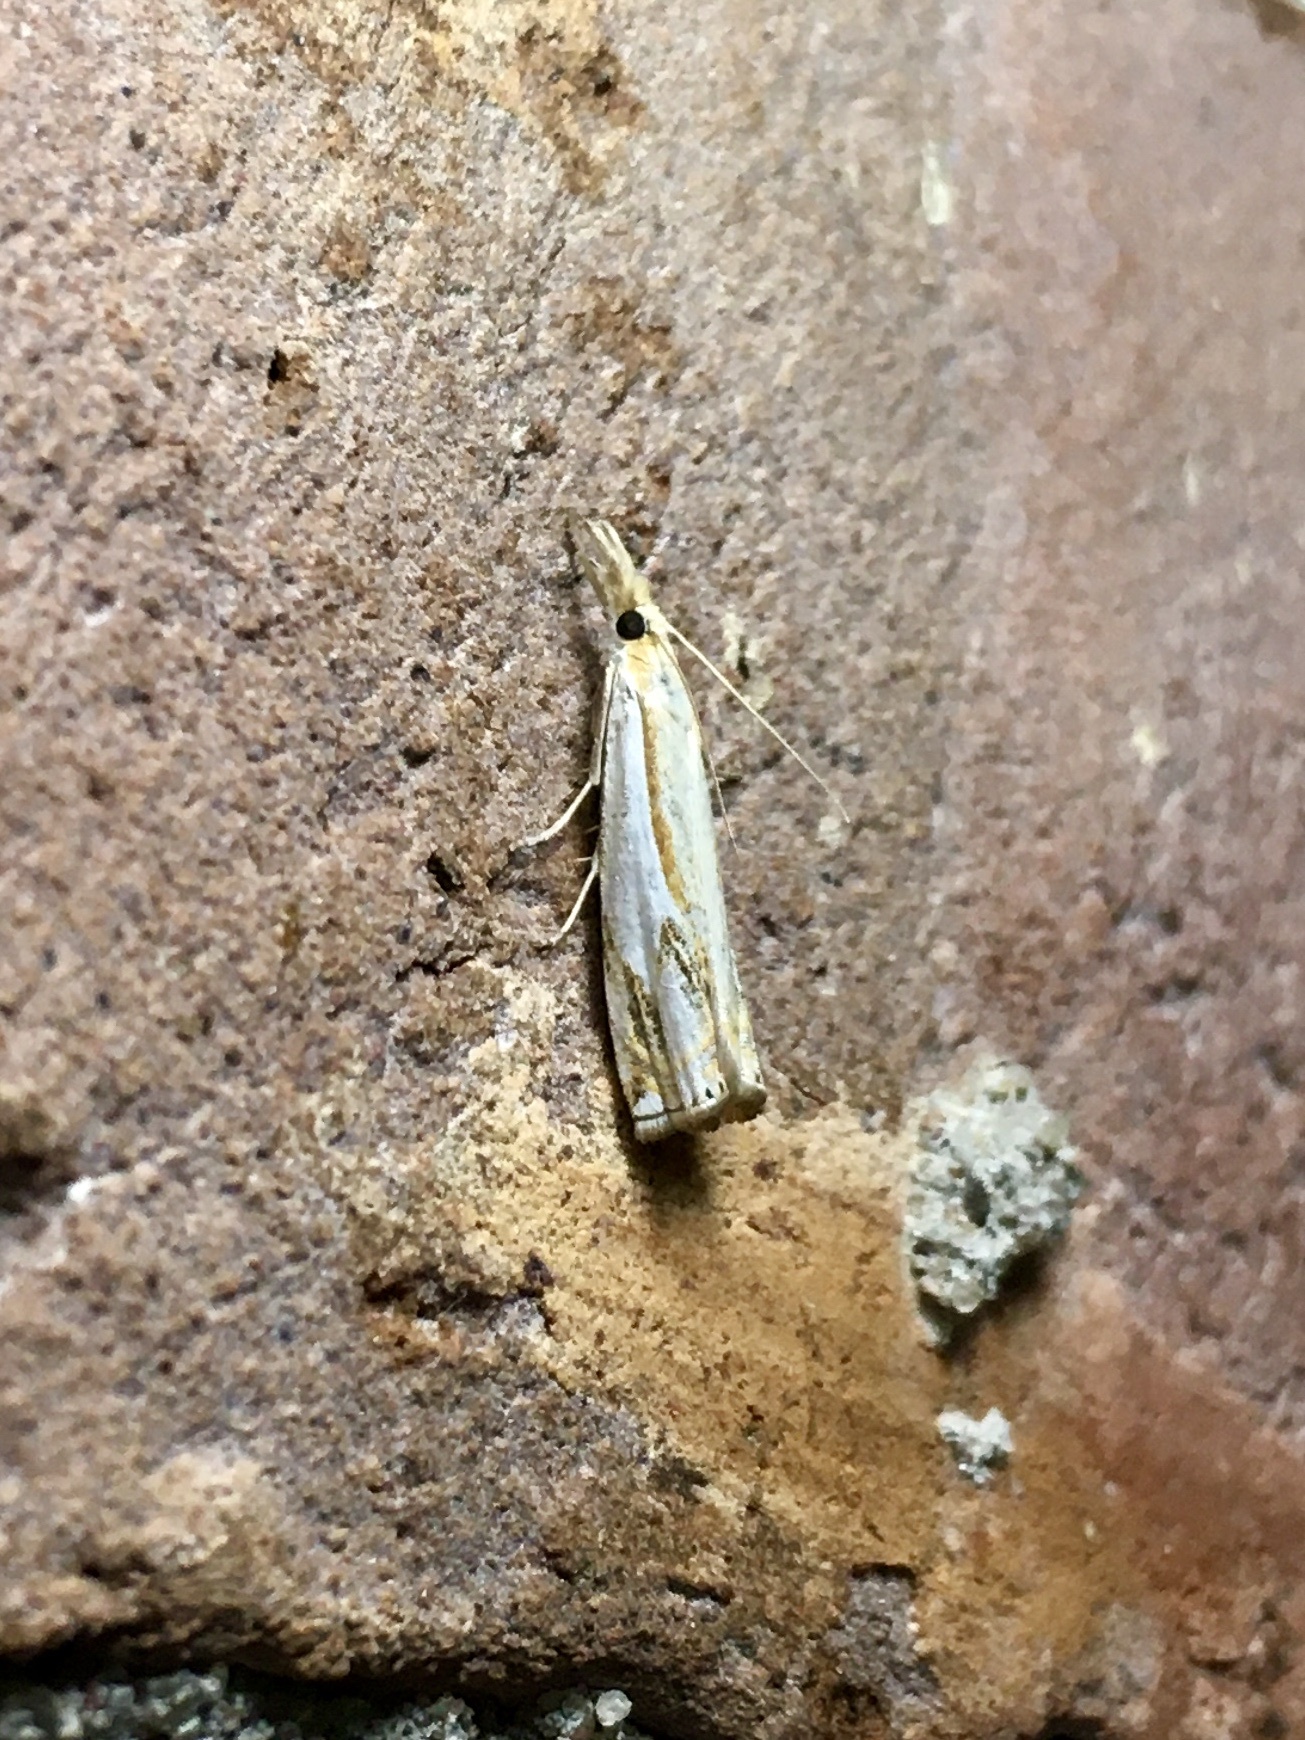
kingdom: Animalia
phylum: Arthropoda
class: Insecta
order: Lepidoptera
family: Crambidae
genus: Crambus
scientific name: Crambus agitatellus
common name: Double-banded grass-veneer
